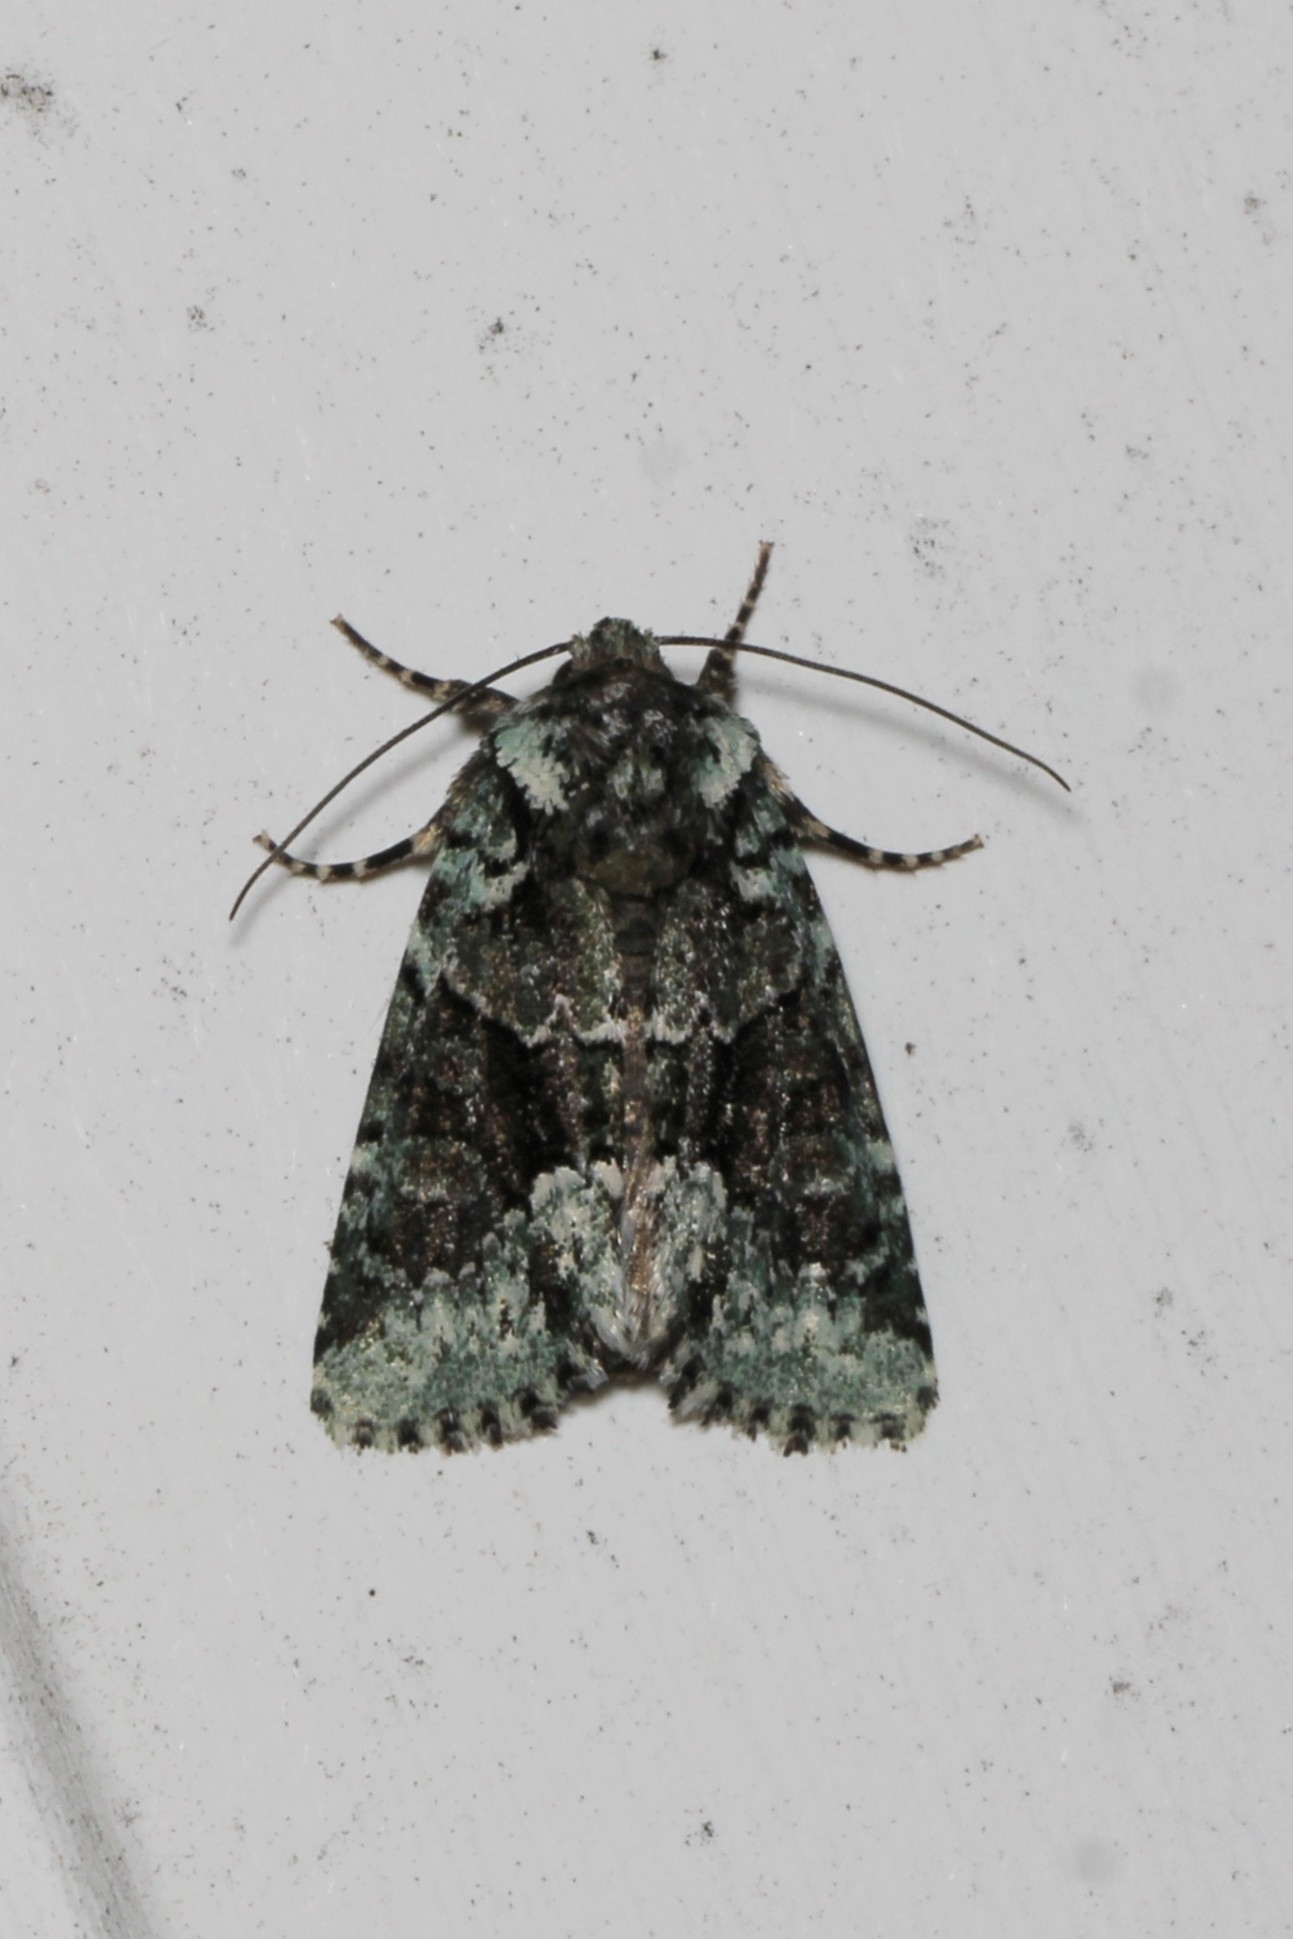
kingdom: Animalia
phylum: Arthropoda
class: Insecta
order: Lepidoptera
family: Noctuidae
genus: Lacinipolia
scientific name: Lacinipolia explicata
